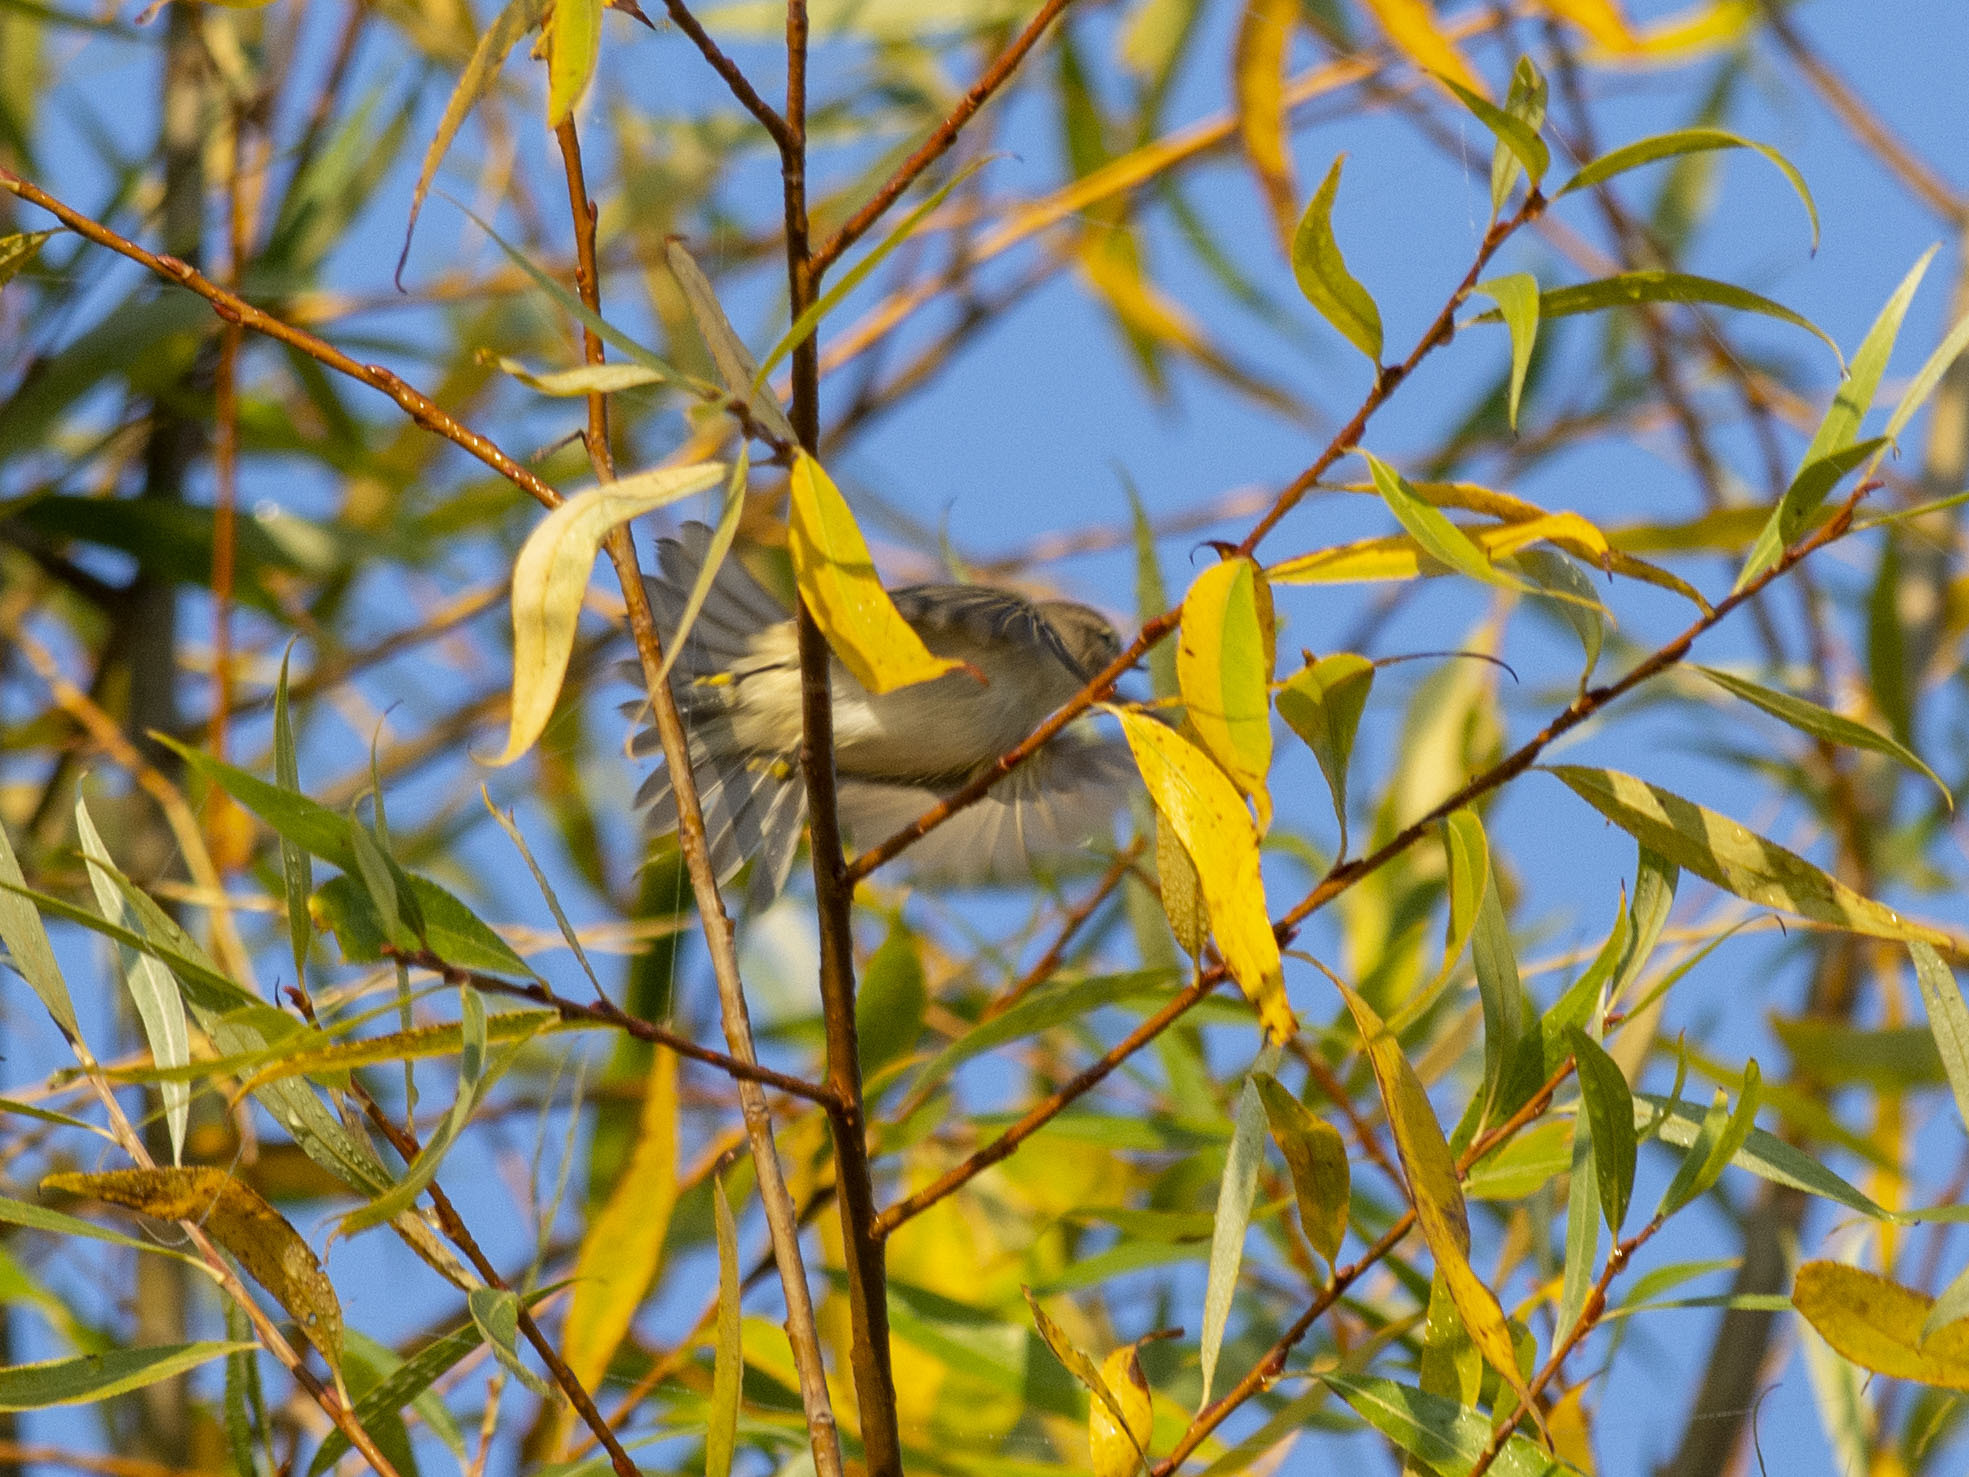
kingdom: Animalia
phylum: Chordata
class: Aves
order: Passeriformes
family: Phylloscopidae
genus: Phylloscopus
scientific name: Phylloscopus collybita
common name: Common chiffchaff
